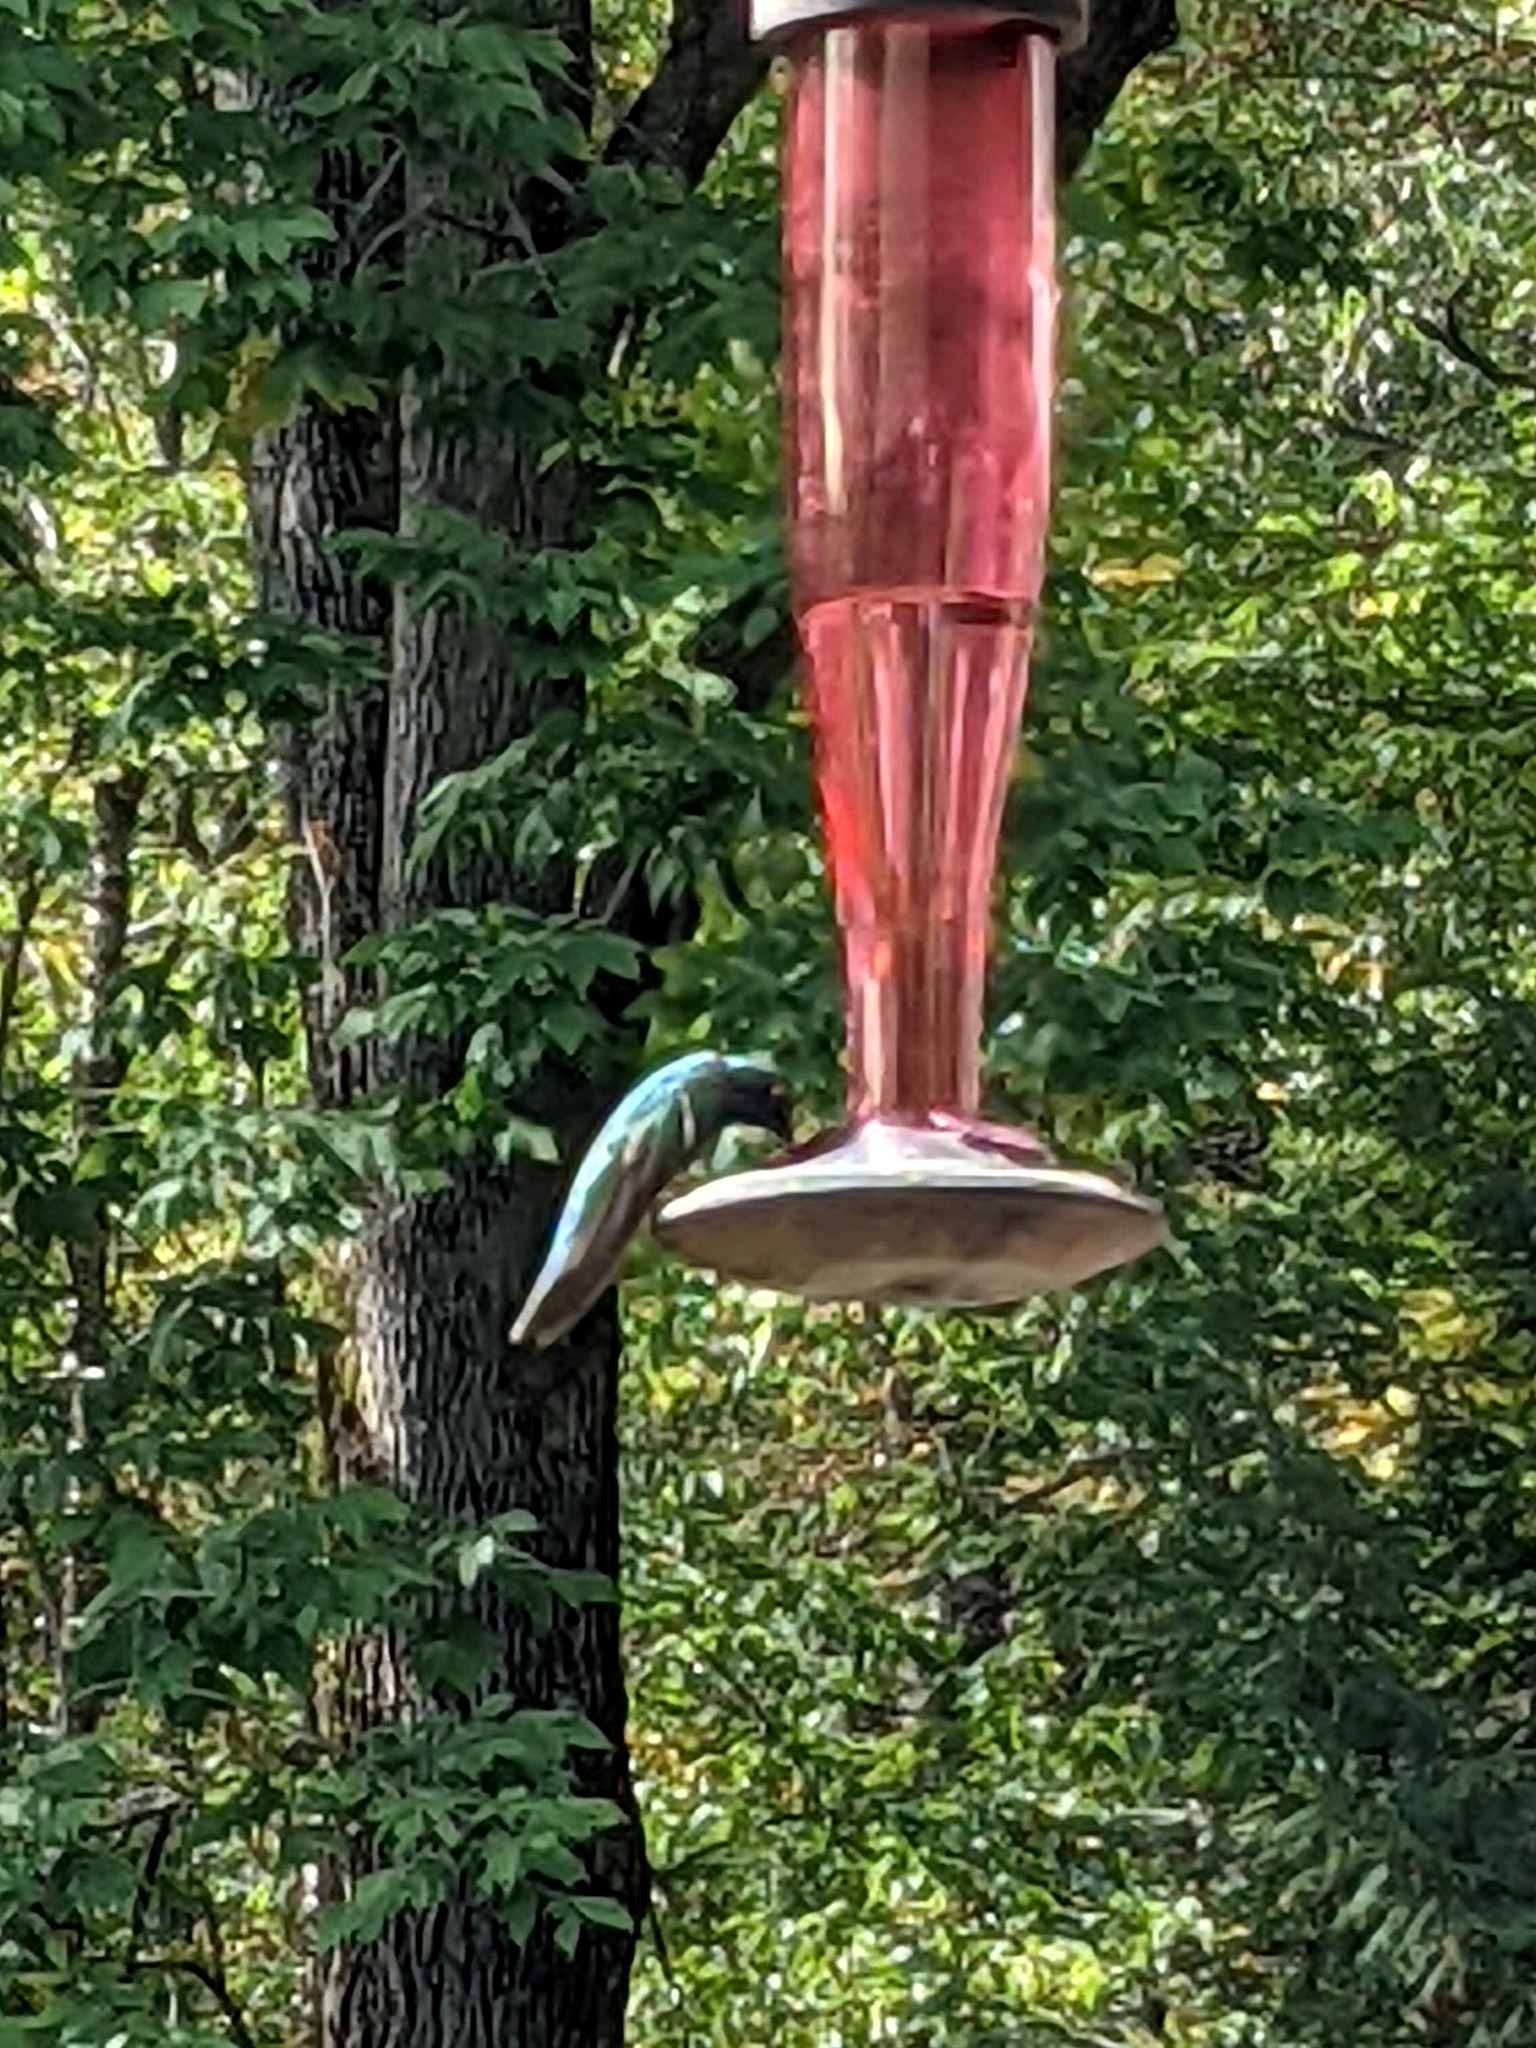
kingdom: Animalia
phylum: Chordata
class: Aves
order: Apodiformes
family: Trochilidae
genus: Colibri
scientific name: Colibri thalassinus
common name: Green violetear
